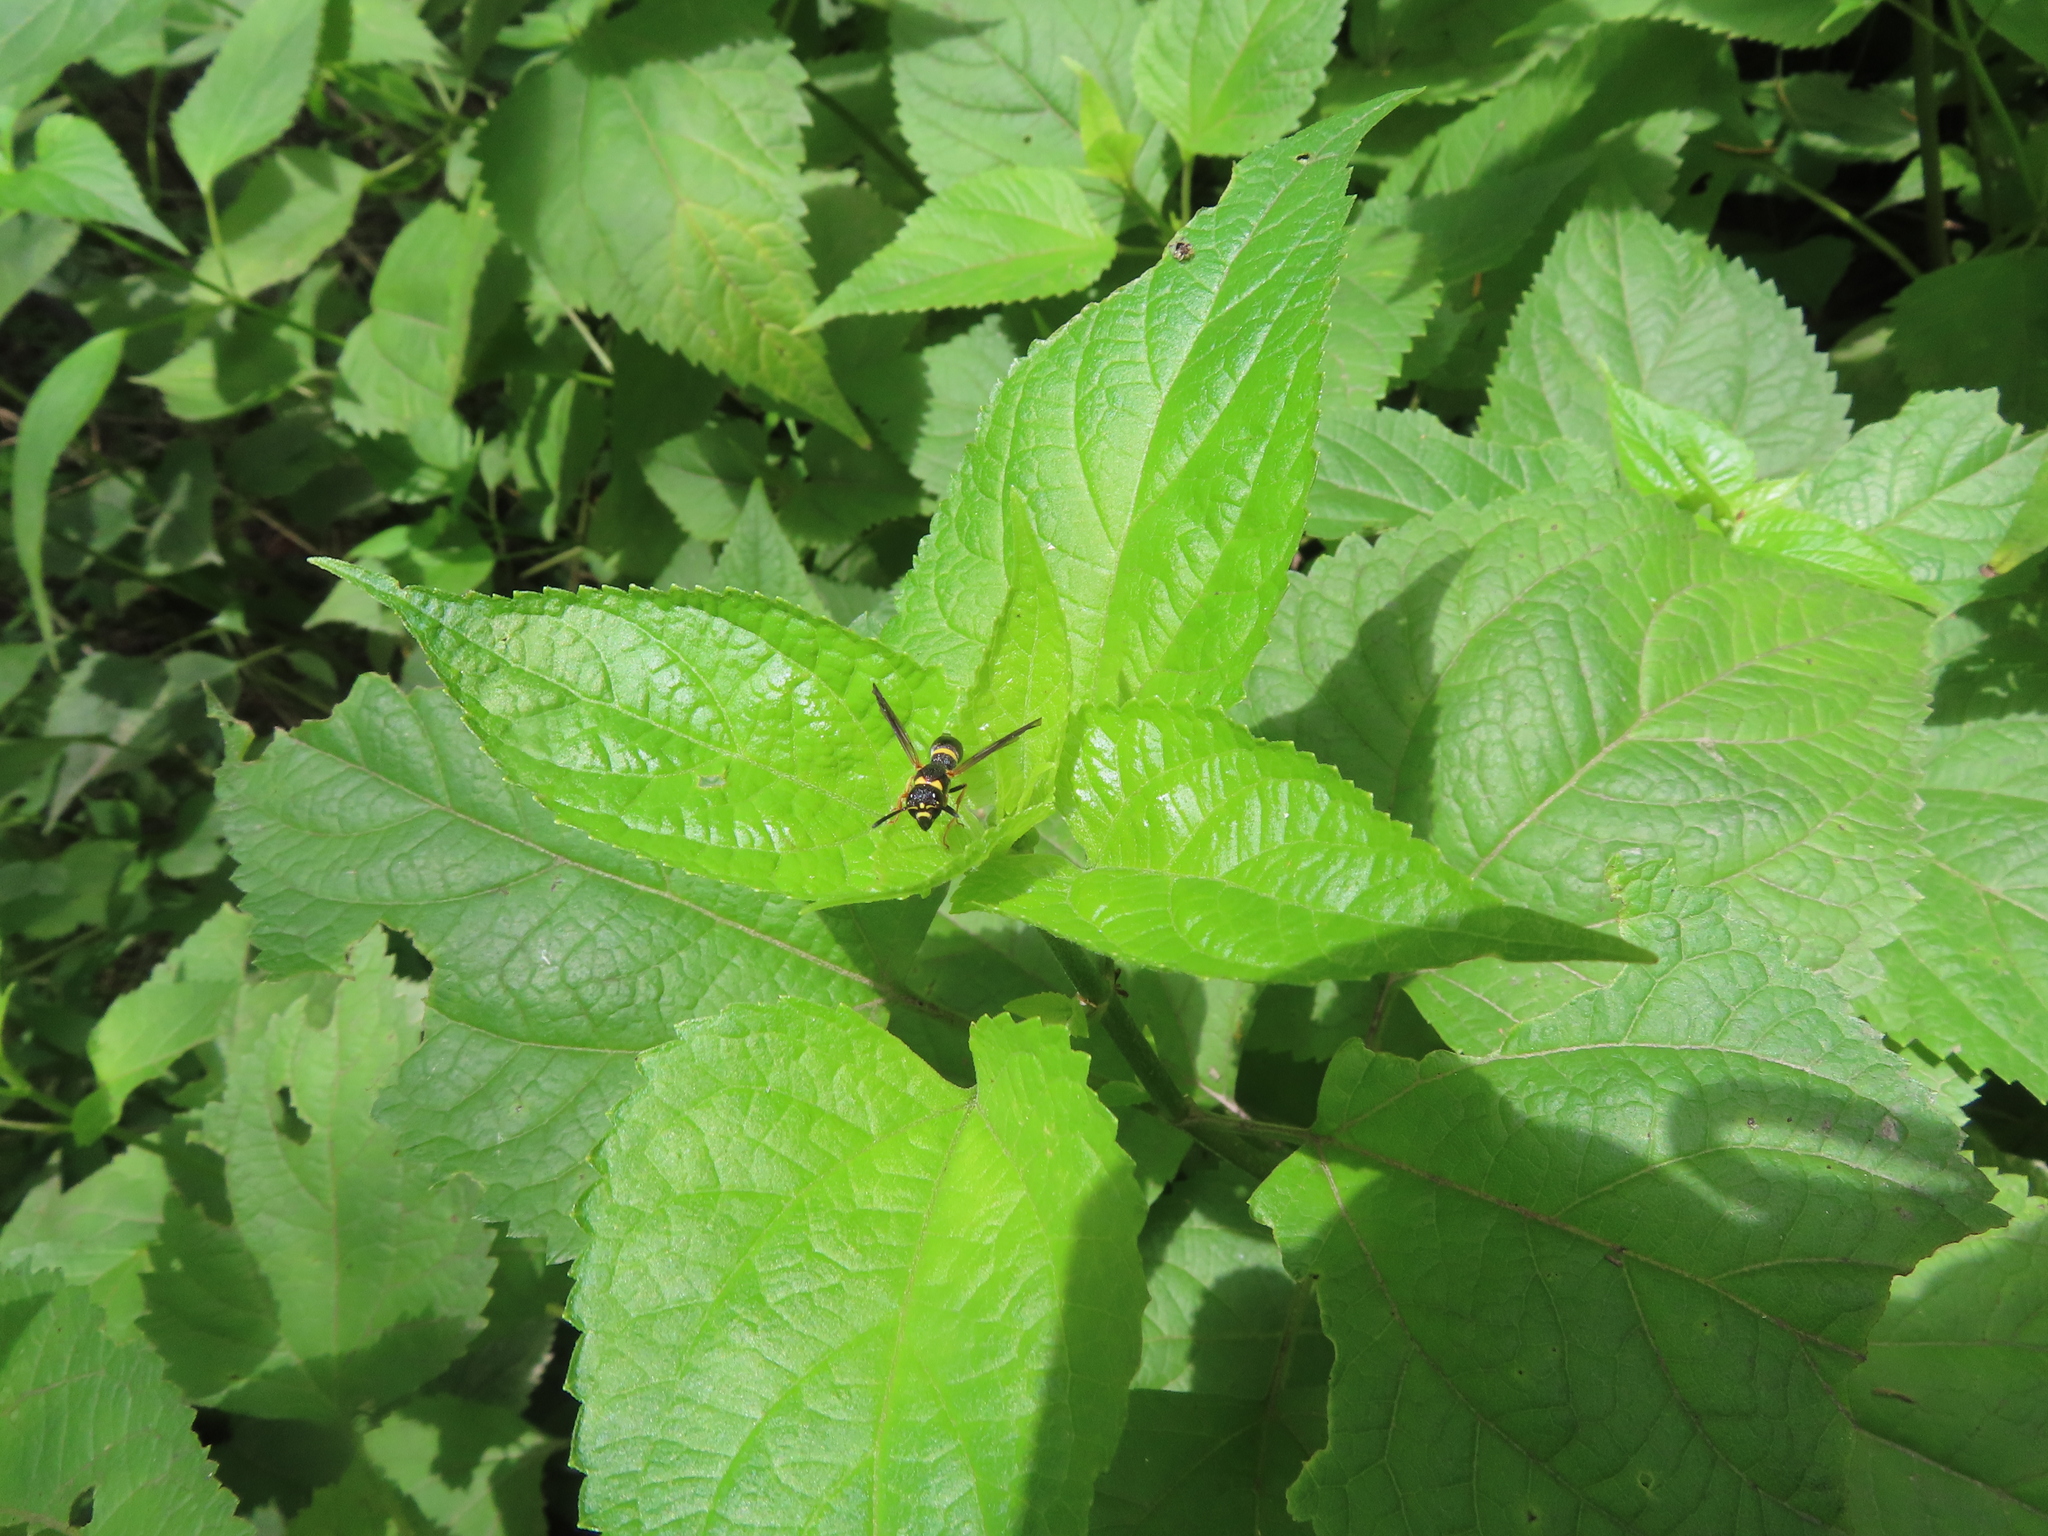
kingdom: Animalia
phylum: Arthropoda
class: Insecta
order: Hymenoptera
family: Eumenidae
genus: Parancistrocerus
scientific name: Parancistrocerus perennis
